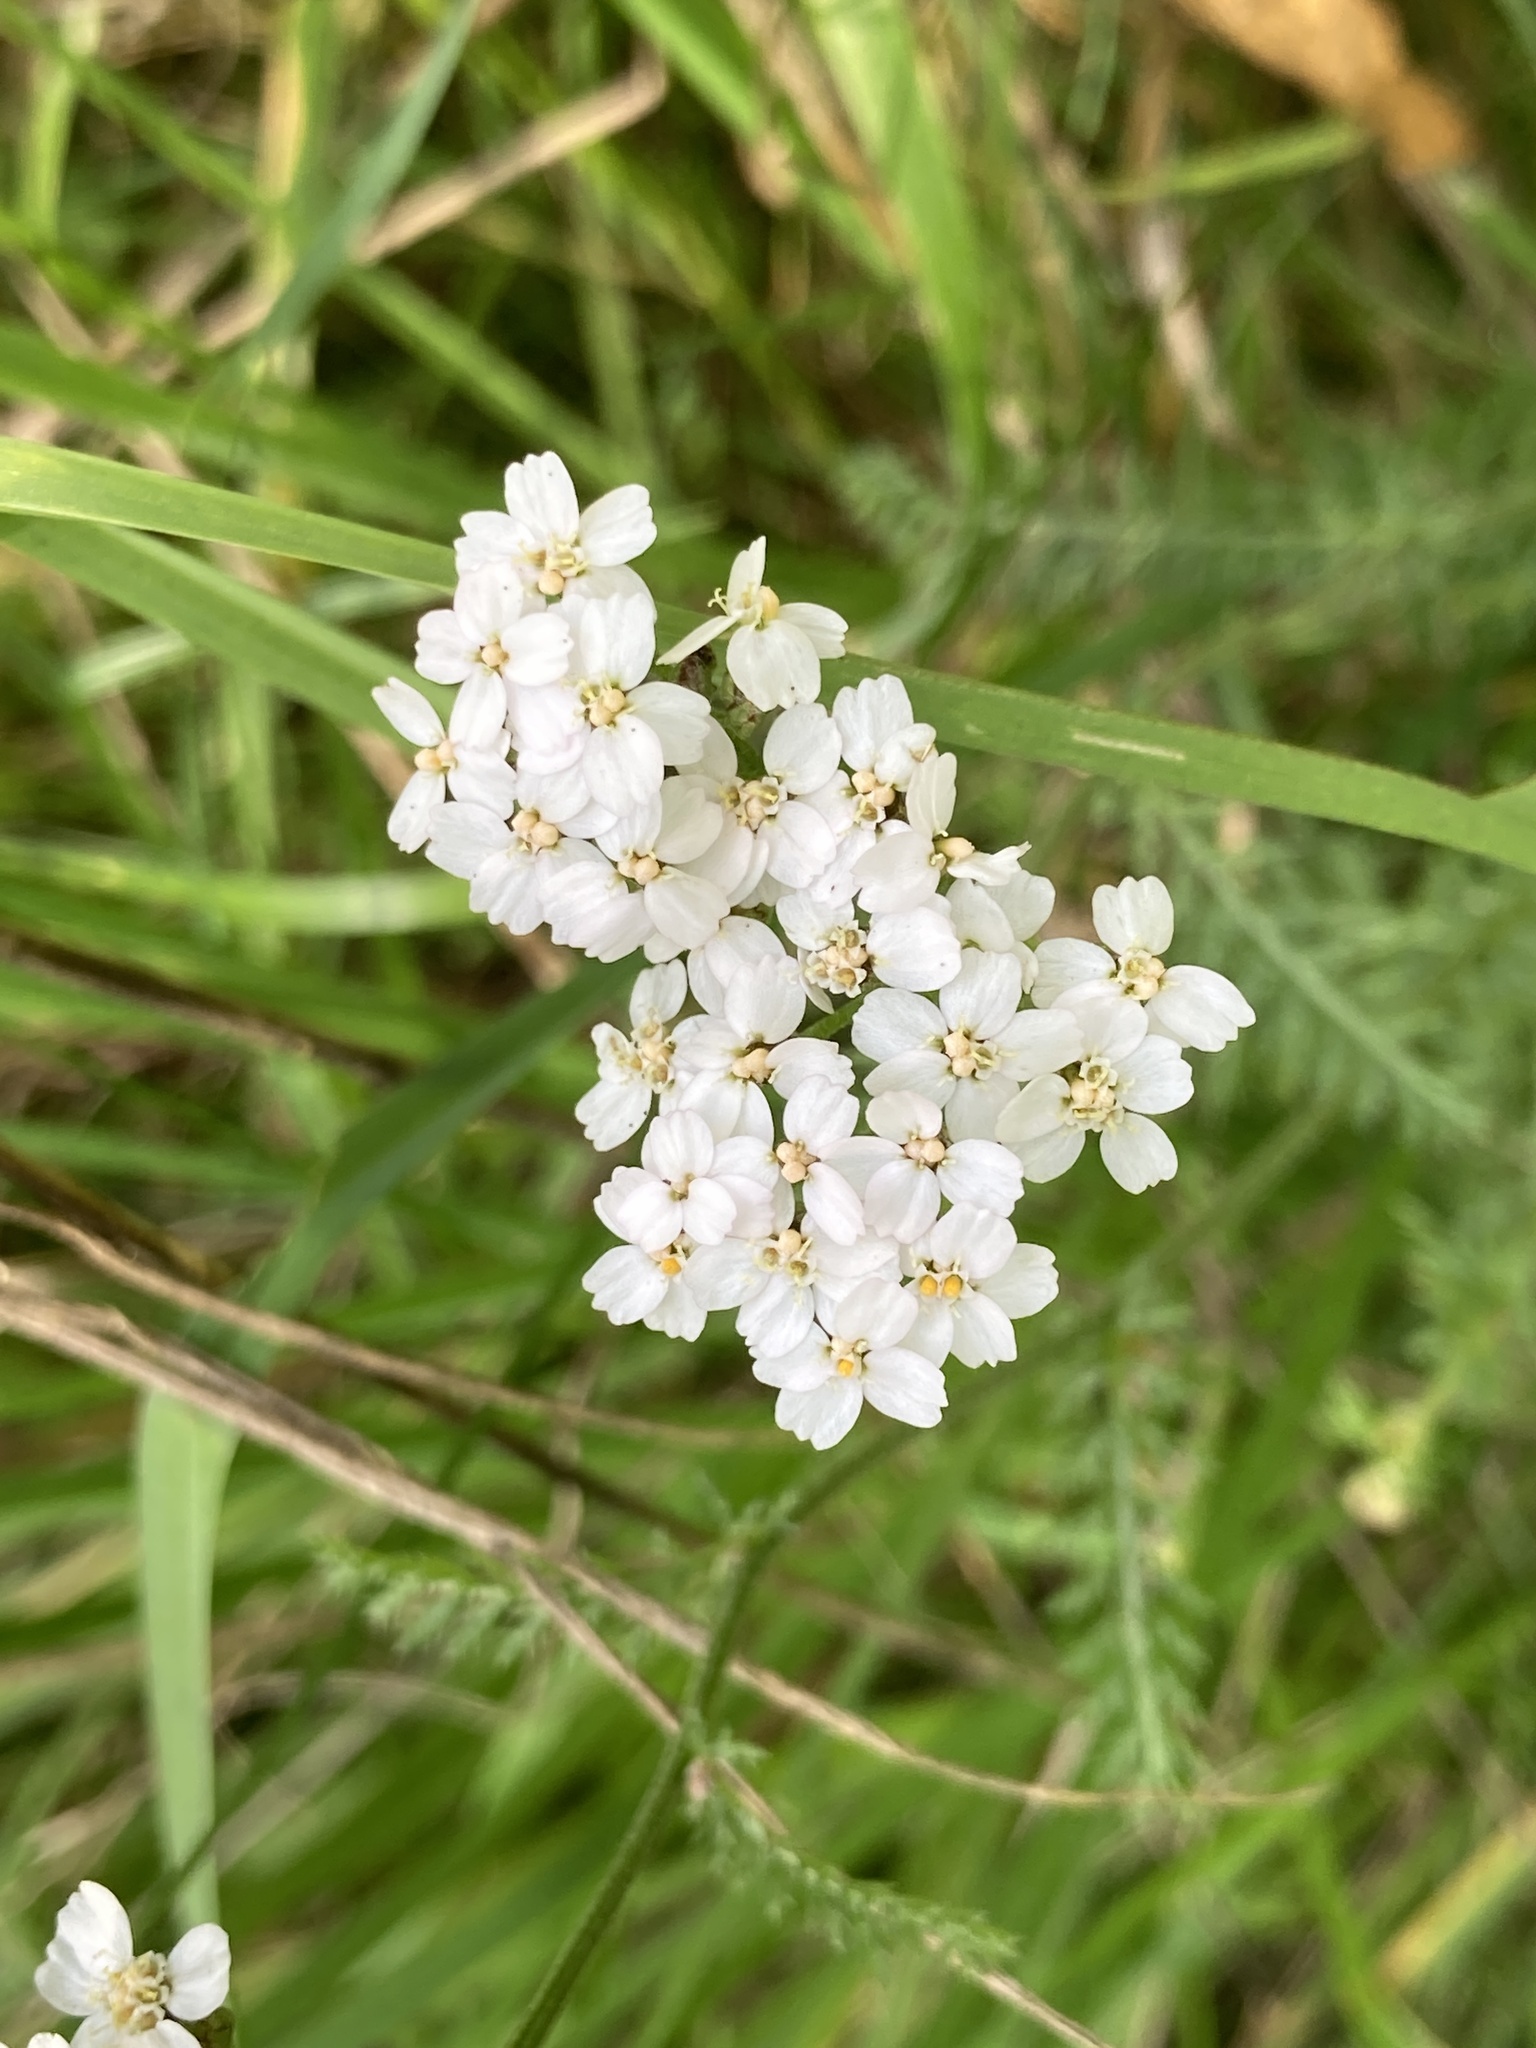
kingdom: Plantae
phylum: Tracheophyta
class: Magnoliopsida
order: Asterales
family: Asteraceae
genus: Achillea
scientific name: Achillea millefolium
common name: Yarrow
